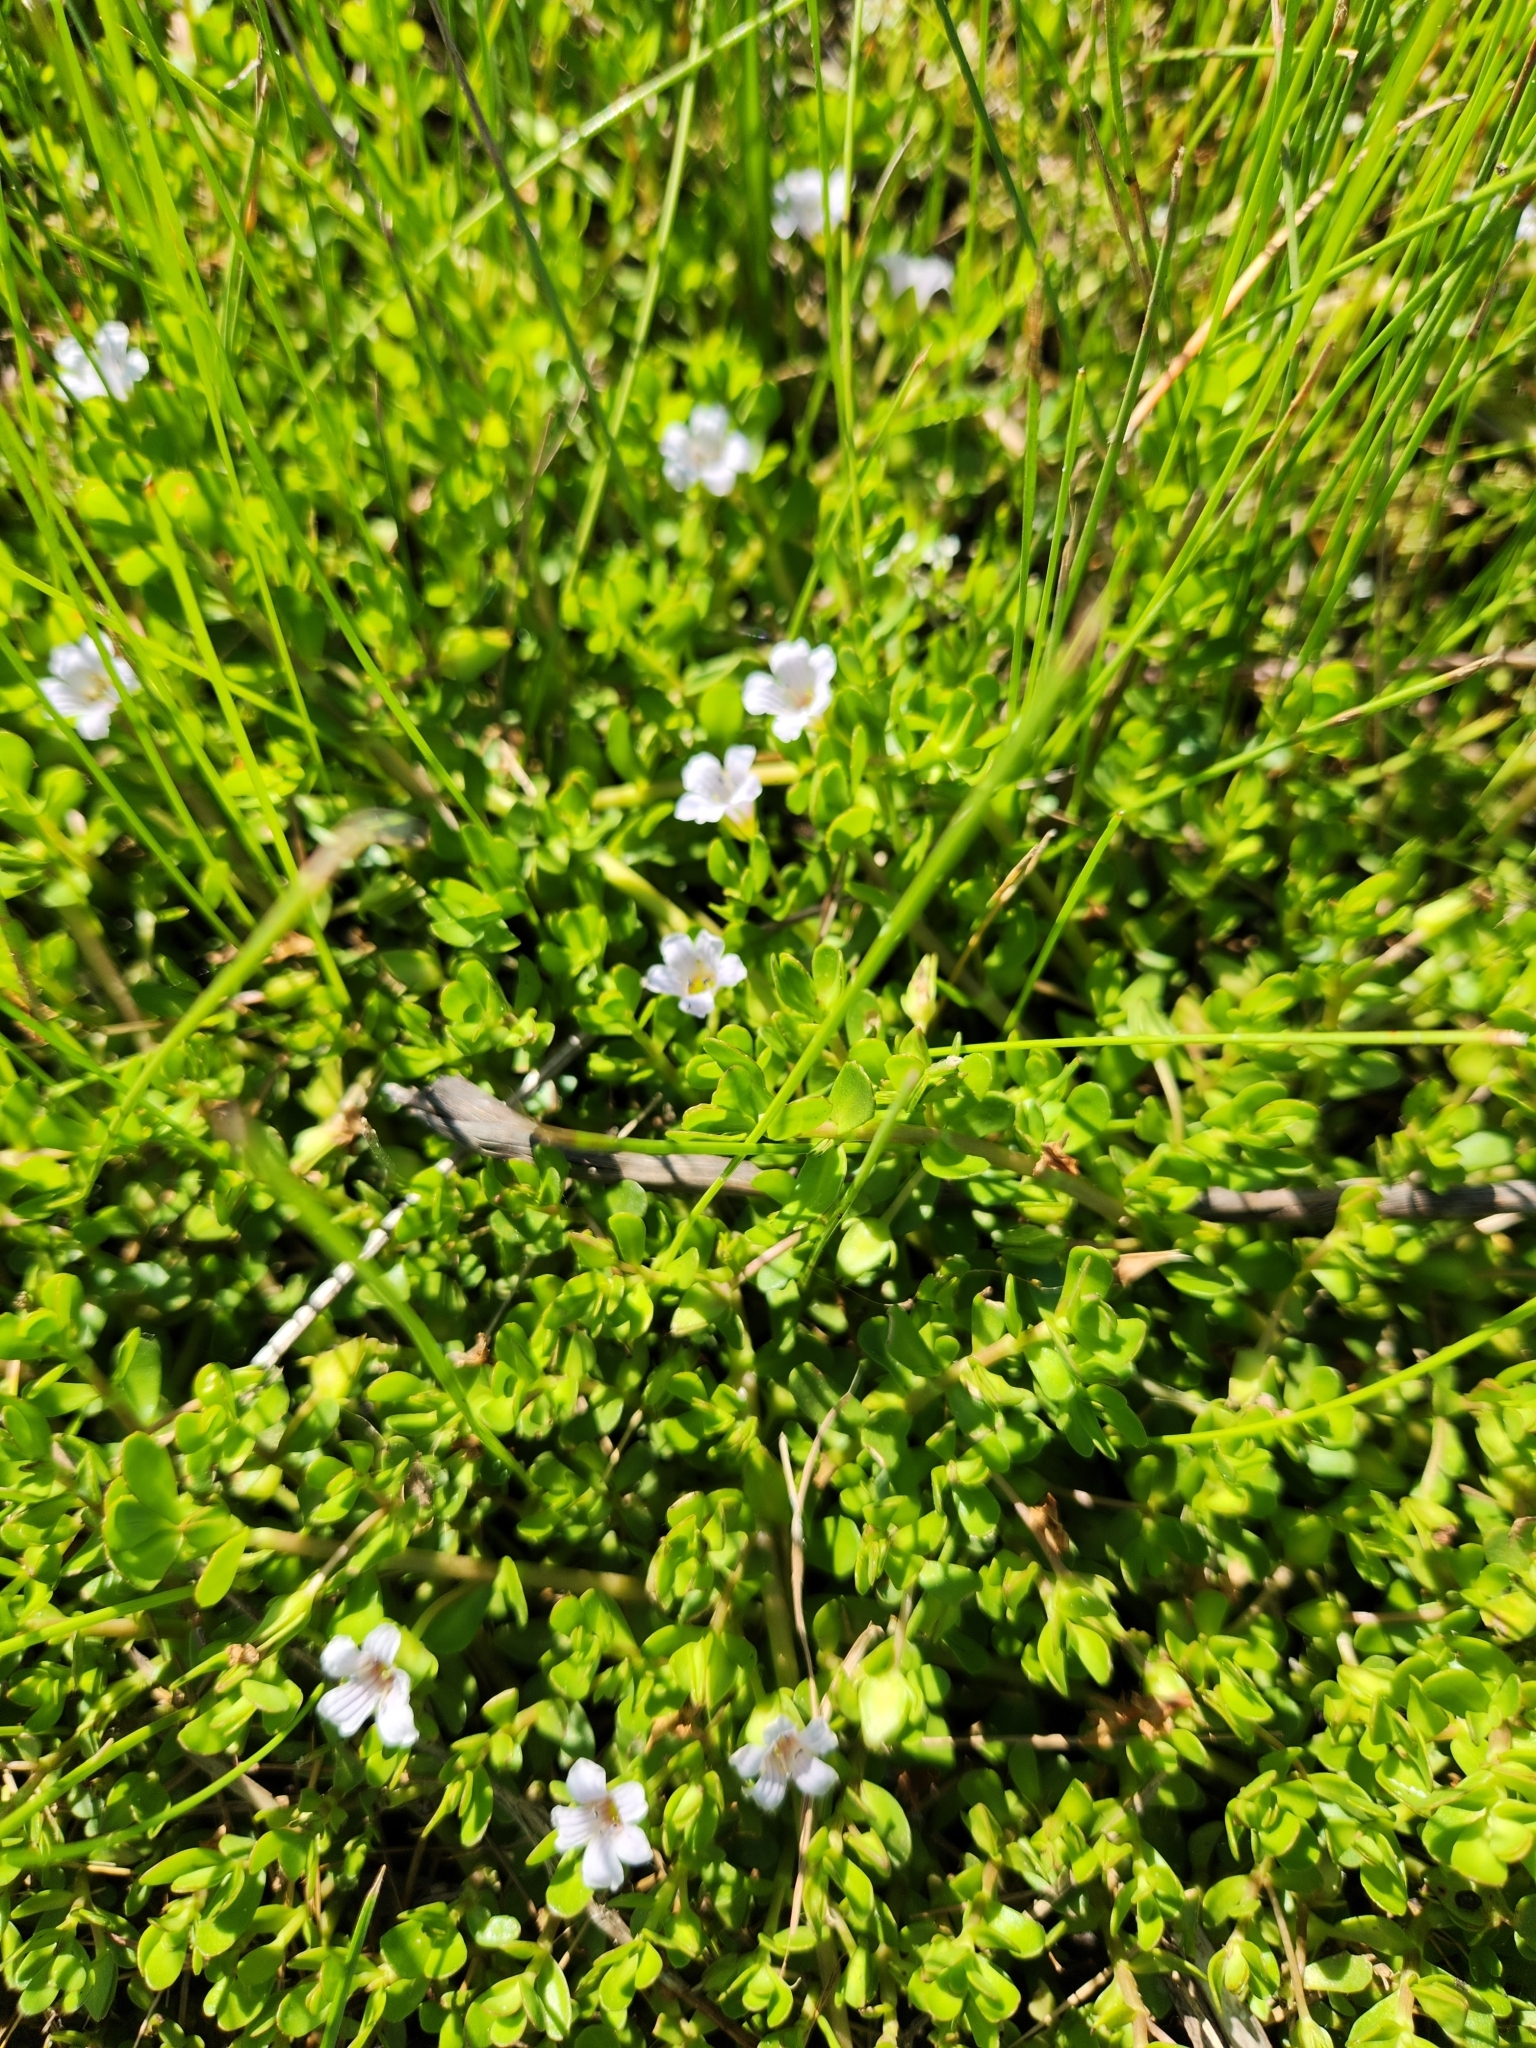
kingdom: Plantae
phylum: Tracheophyta
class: Magnoliopsida
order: Lamiales
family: Plantaginaceae
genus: Bacopa
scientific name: Bacopa monnieri
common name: Indian-pennywort
